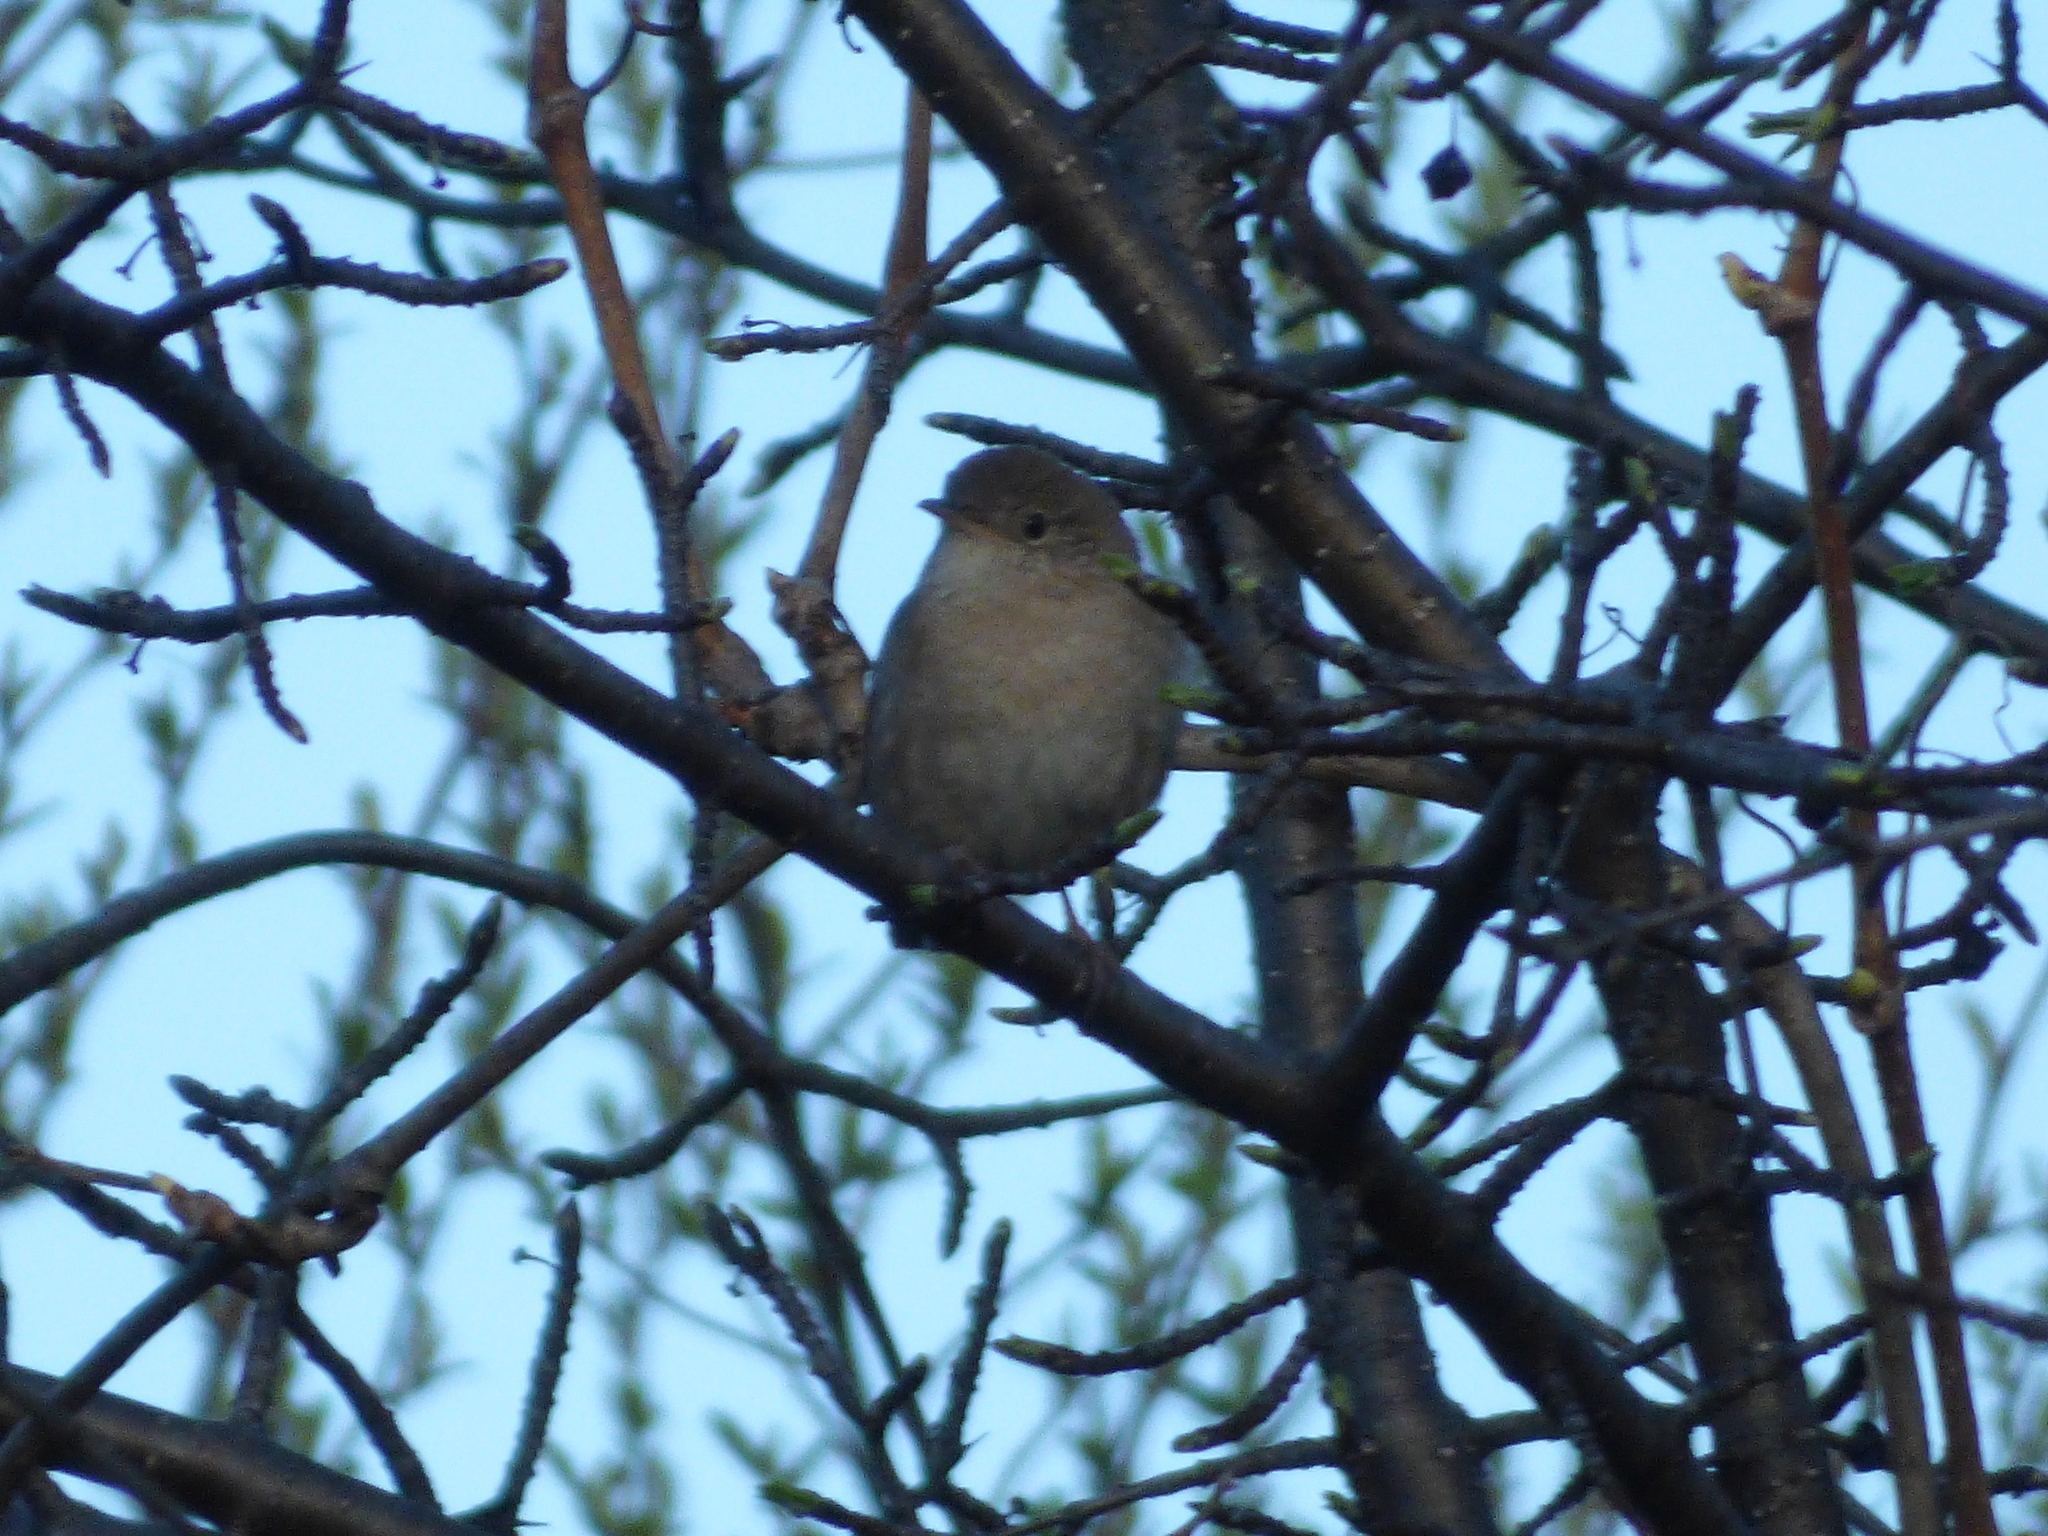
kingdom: Animalia
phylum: Chordata
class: Aves
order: Passeriformes
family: Troglodytidae
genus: Troglodytes
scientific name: Troglodytes aedon
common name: House wren
